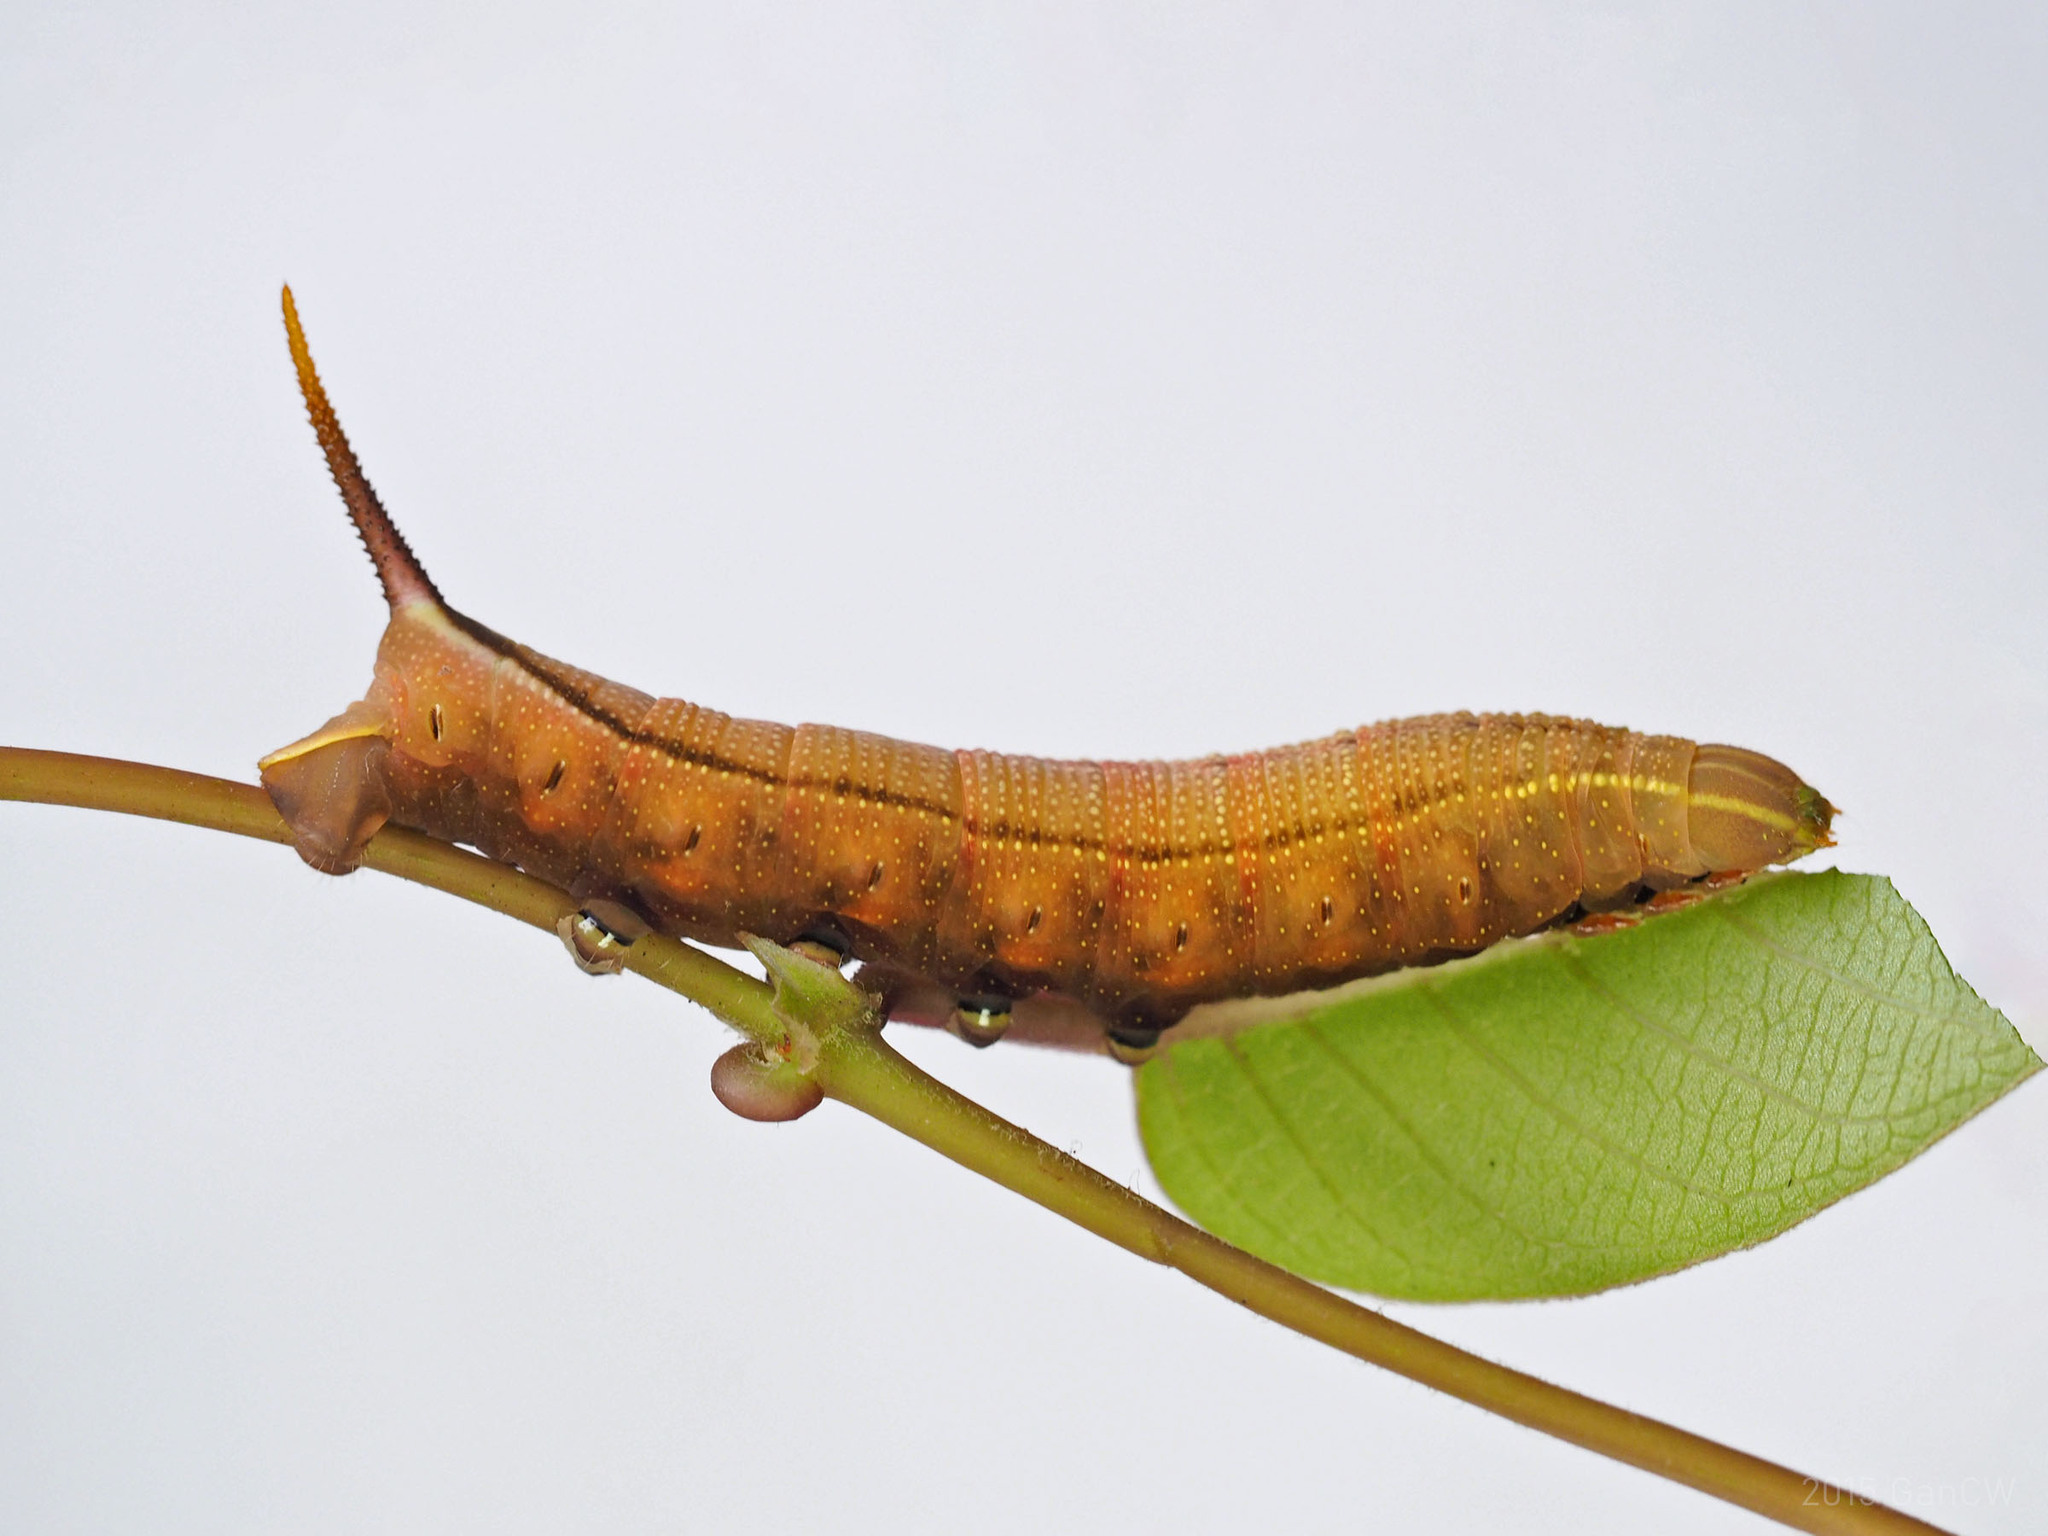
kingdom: Animalia
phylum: Arthropoda
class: Insecta
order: Lepidoptera
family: Sphingidae
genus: Macroglossum
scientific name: Macroglossum sitiene
